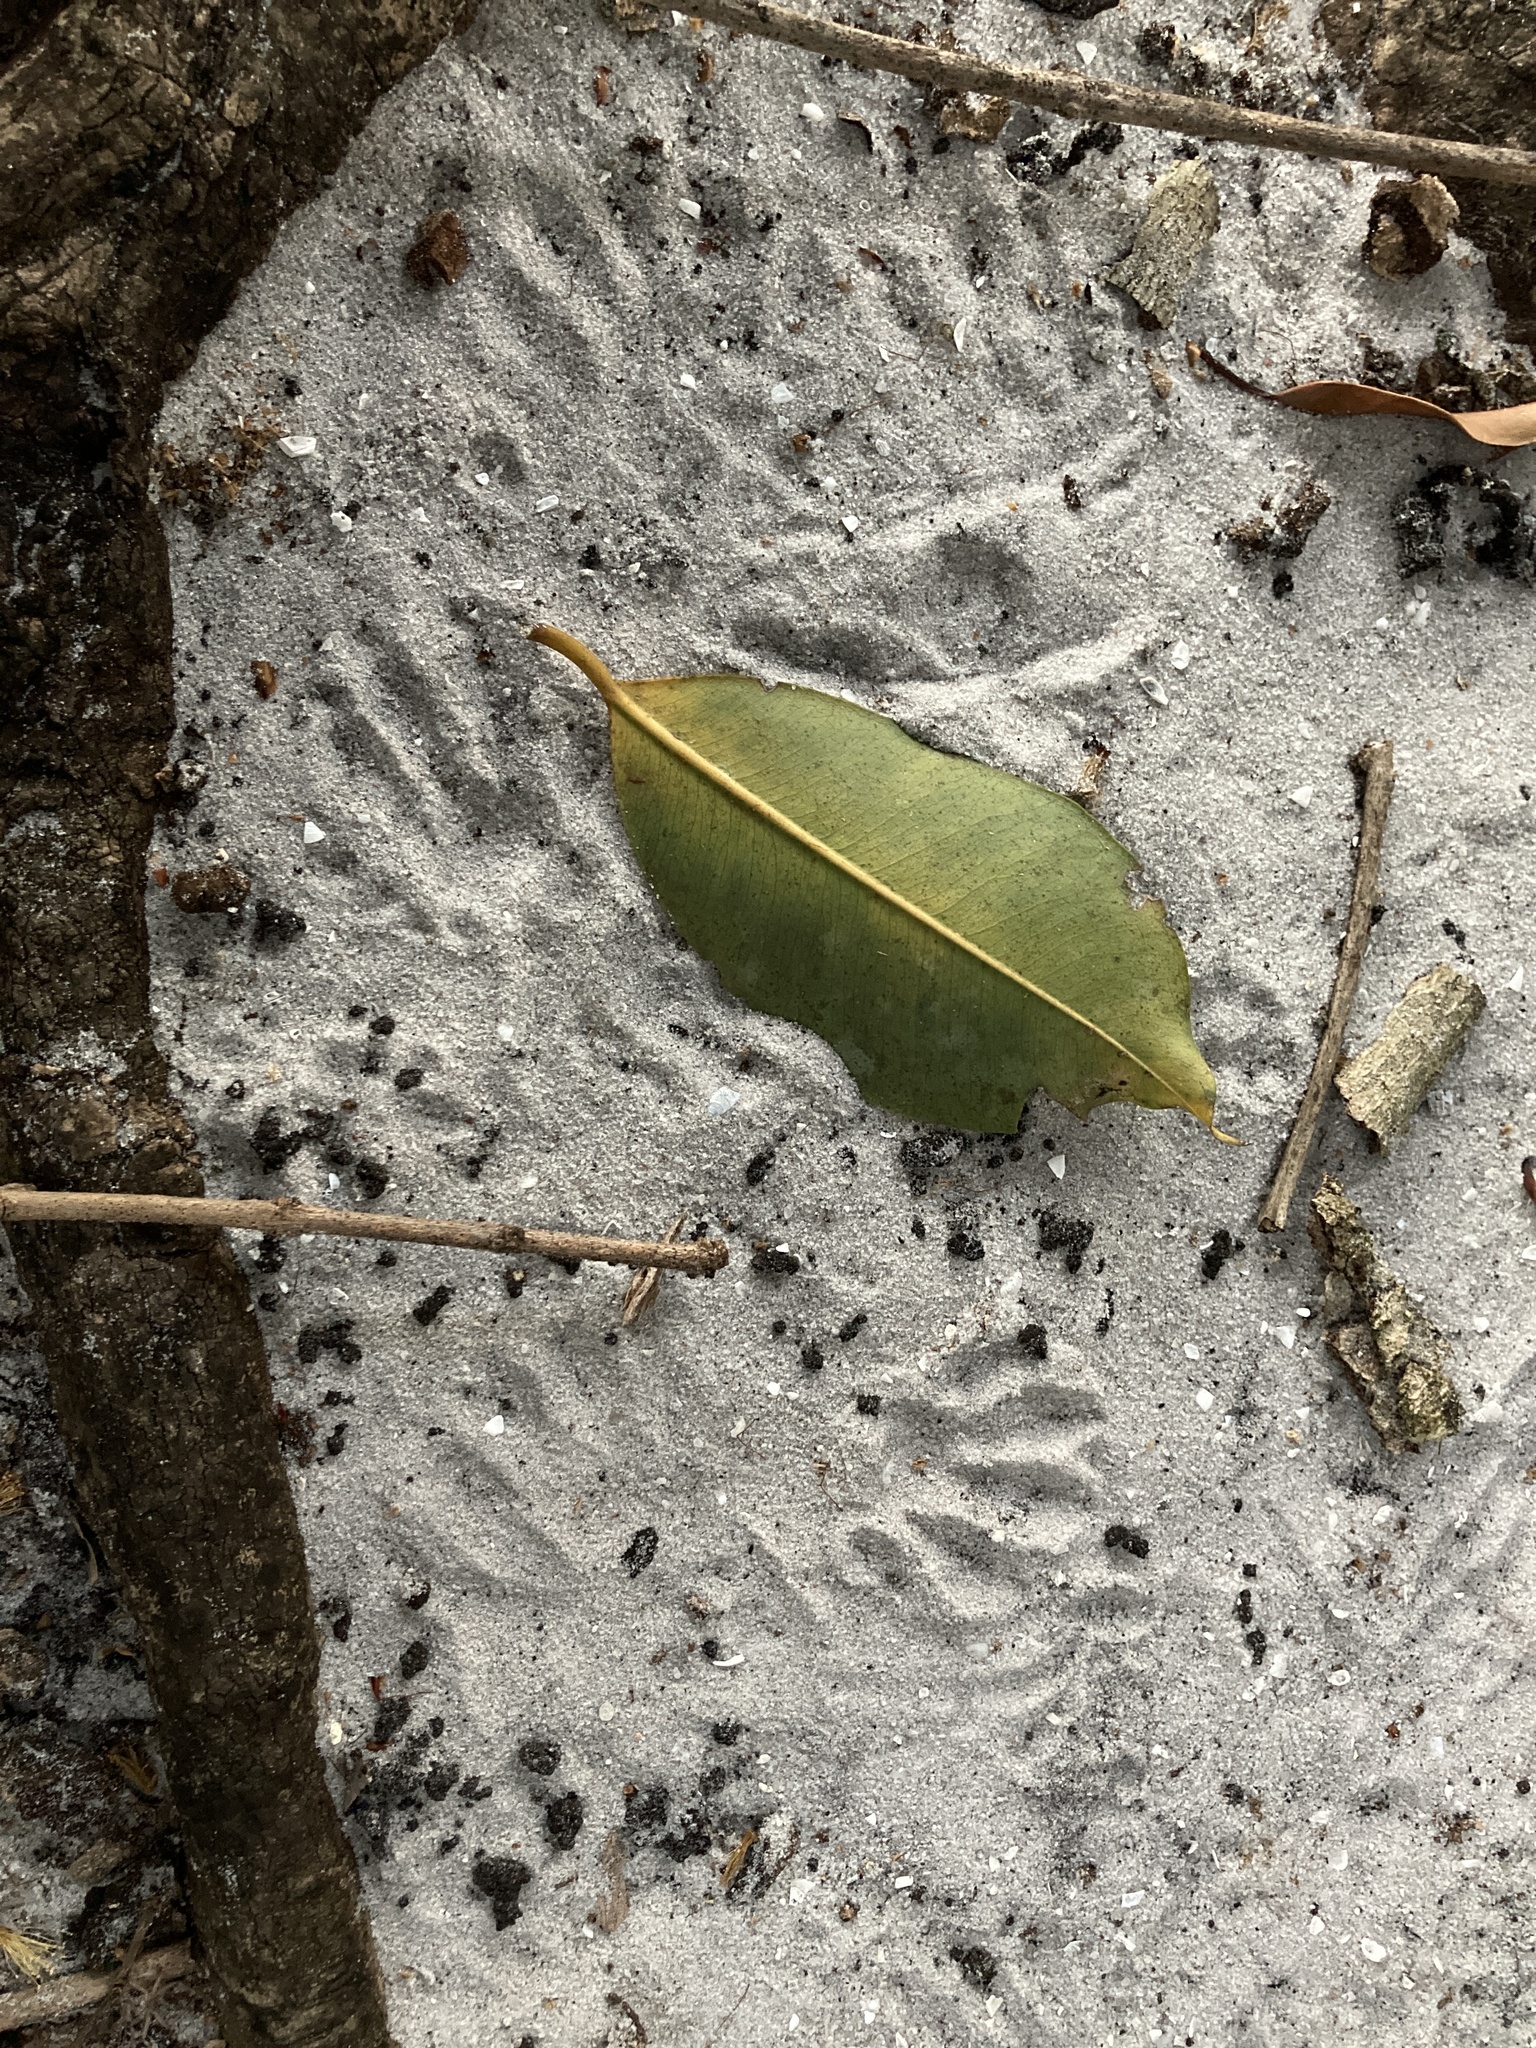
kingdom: Animalia
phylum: Chordata
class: Mammalia
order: Carnivora
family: Procyonidae
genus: Procyon
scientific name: Procyon lotor
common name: Raccoon
